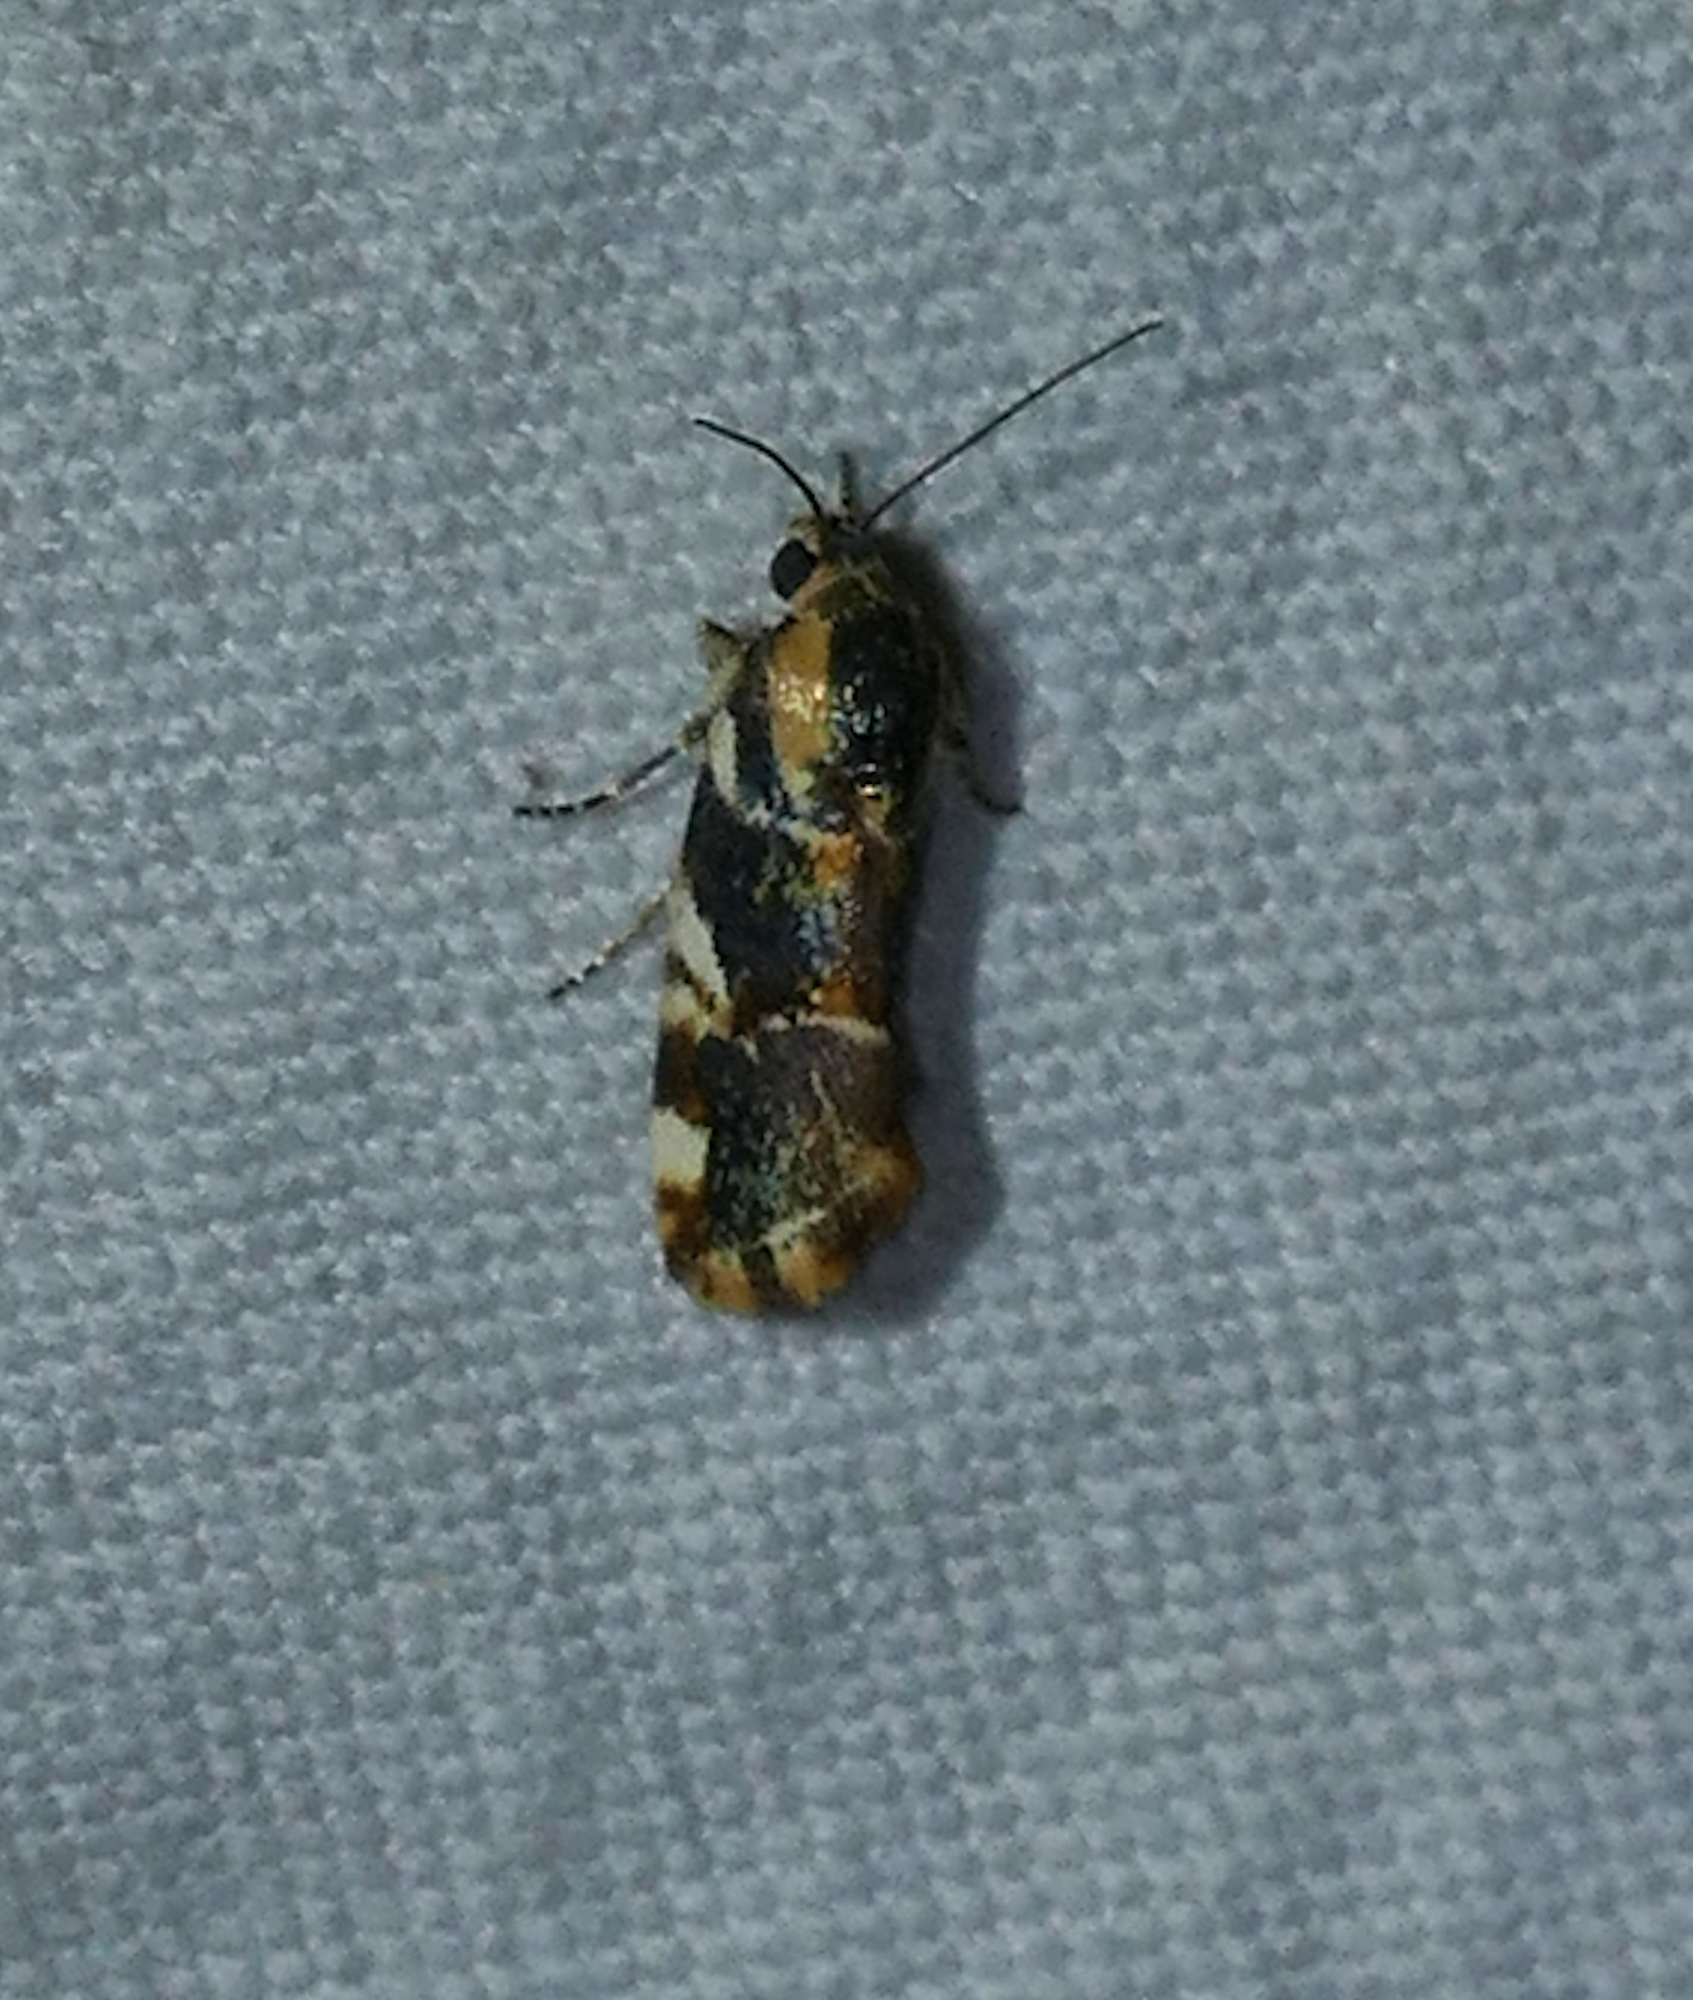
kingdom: Animalia
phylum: Arthropoda
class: Insecta
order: Lepidoptera
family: Noctuidae
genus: Spragueia
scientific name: Spragueia jaguaralis
